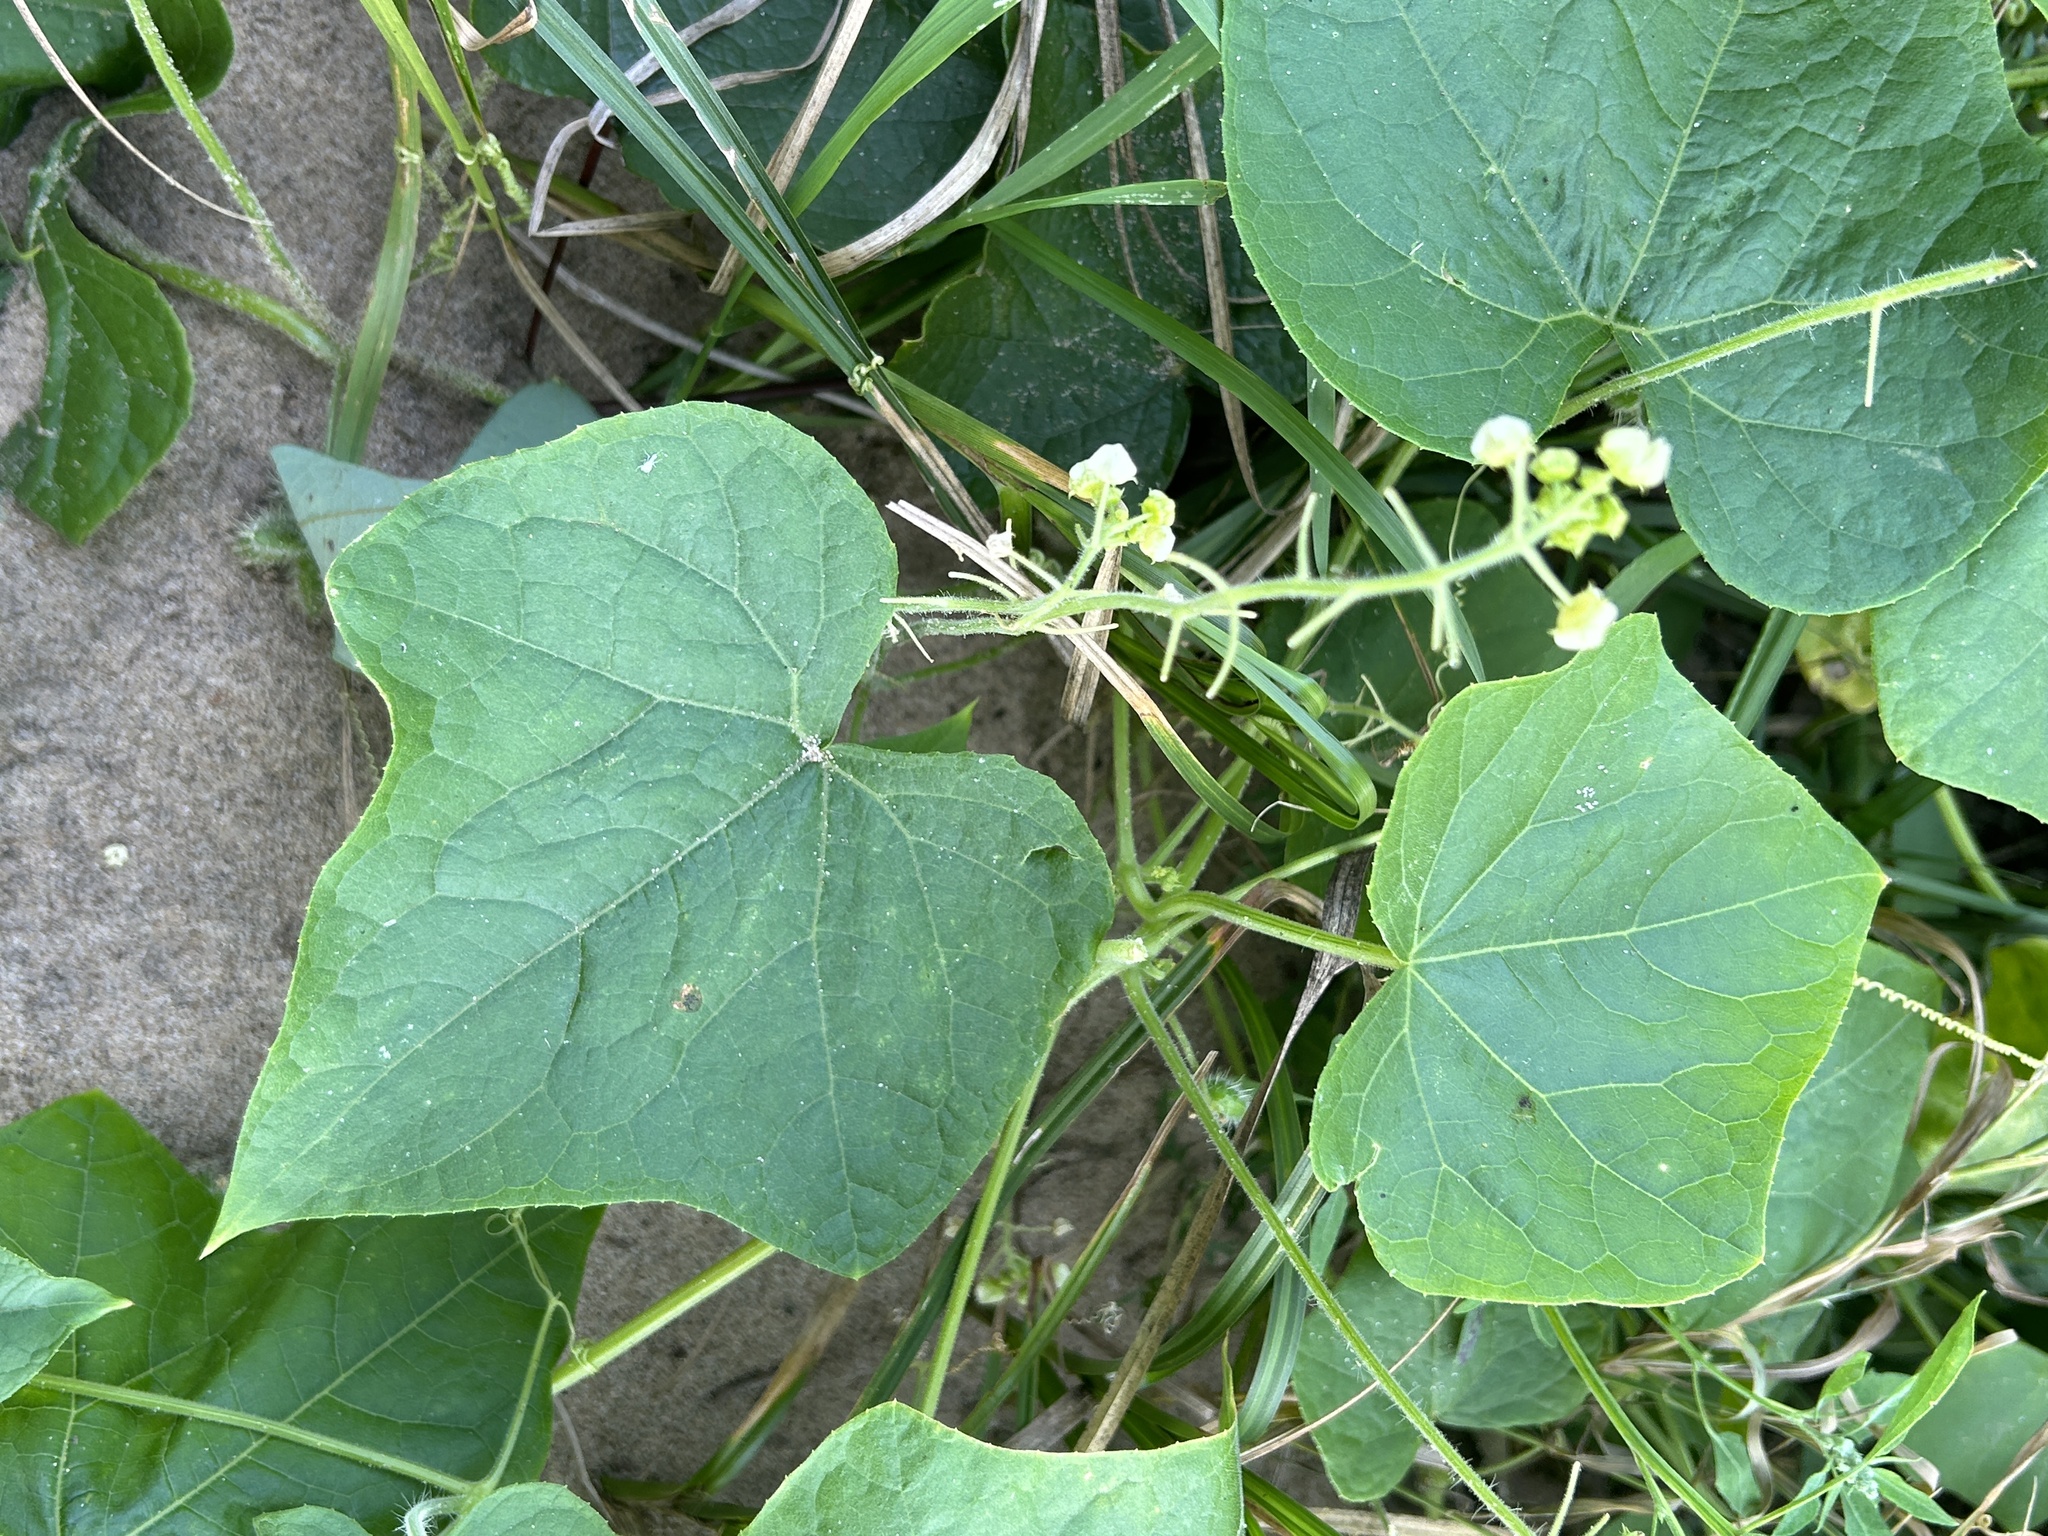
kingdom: Plantae
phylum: Tracheophyta
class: Magnoliopsida
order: Cucurbitales
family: Cucurbitaceae
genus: Sicyos
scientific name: Sicyos angulatus
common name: Angled burr cucumber
